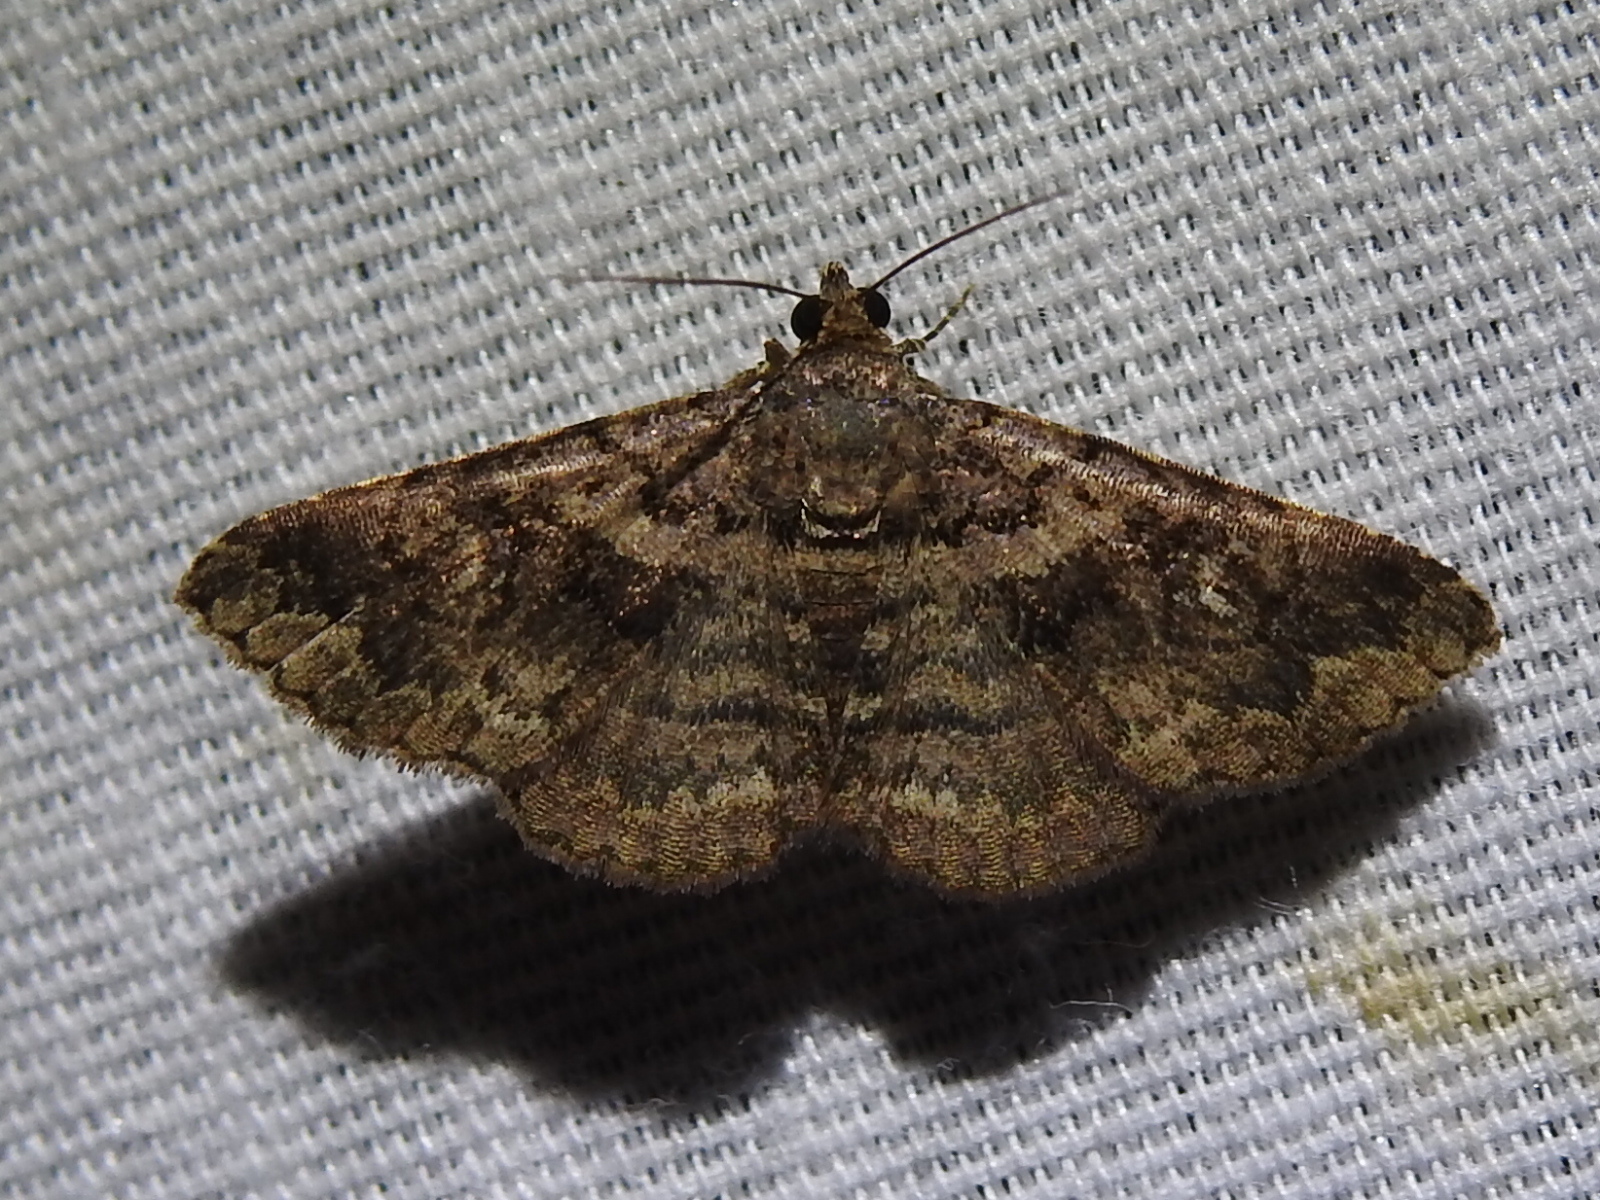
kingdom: Animalia
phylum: Arthropoda
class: Insecta
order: Lepidoptera
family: Erebidae
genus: Toxonprucha
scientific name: Toxonprucha excavata
